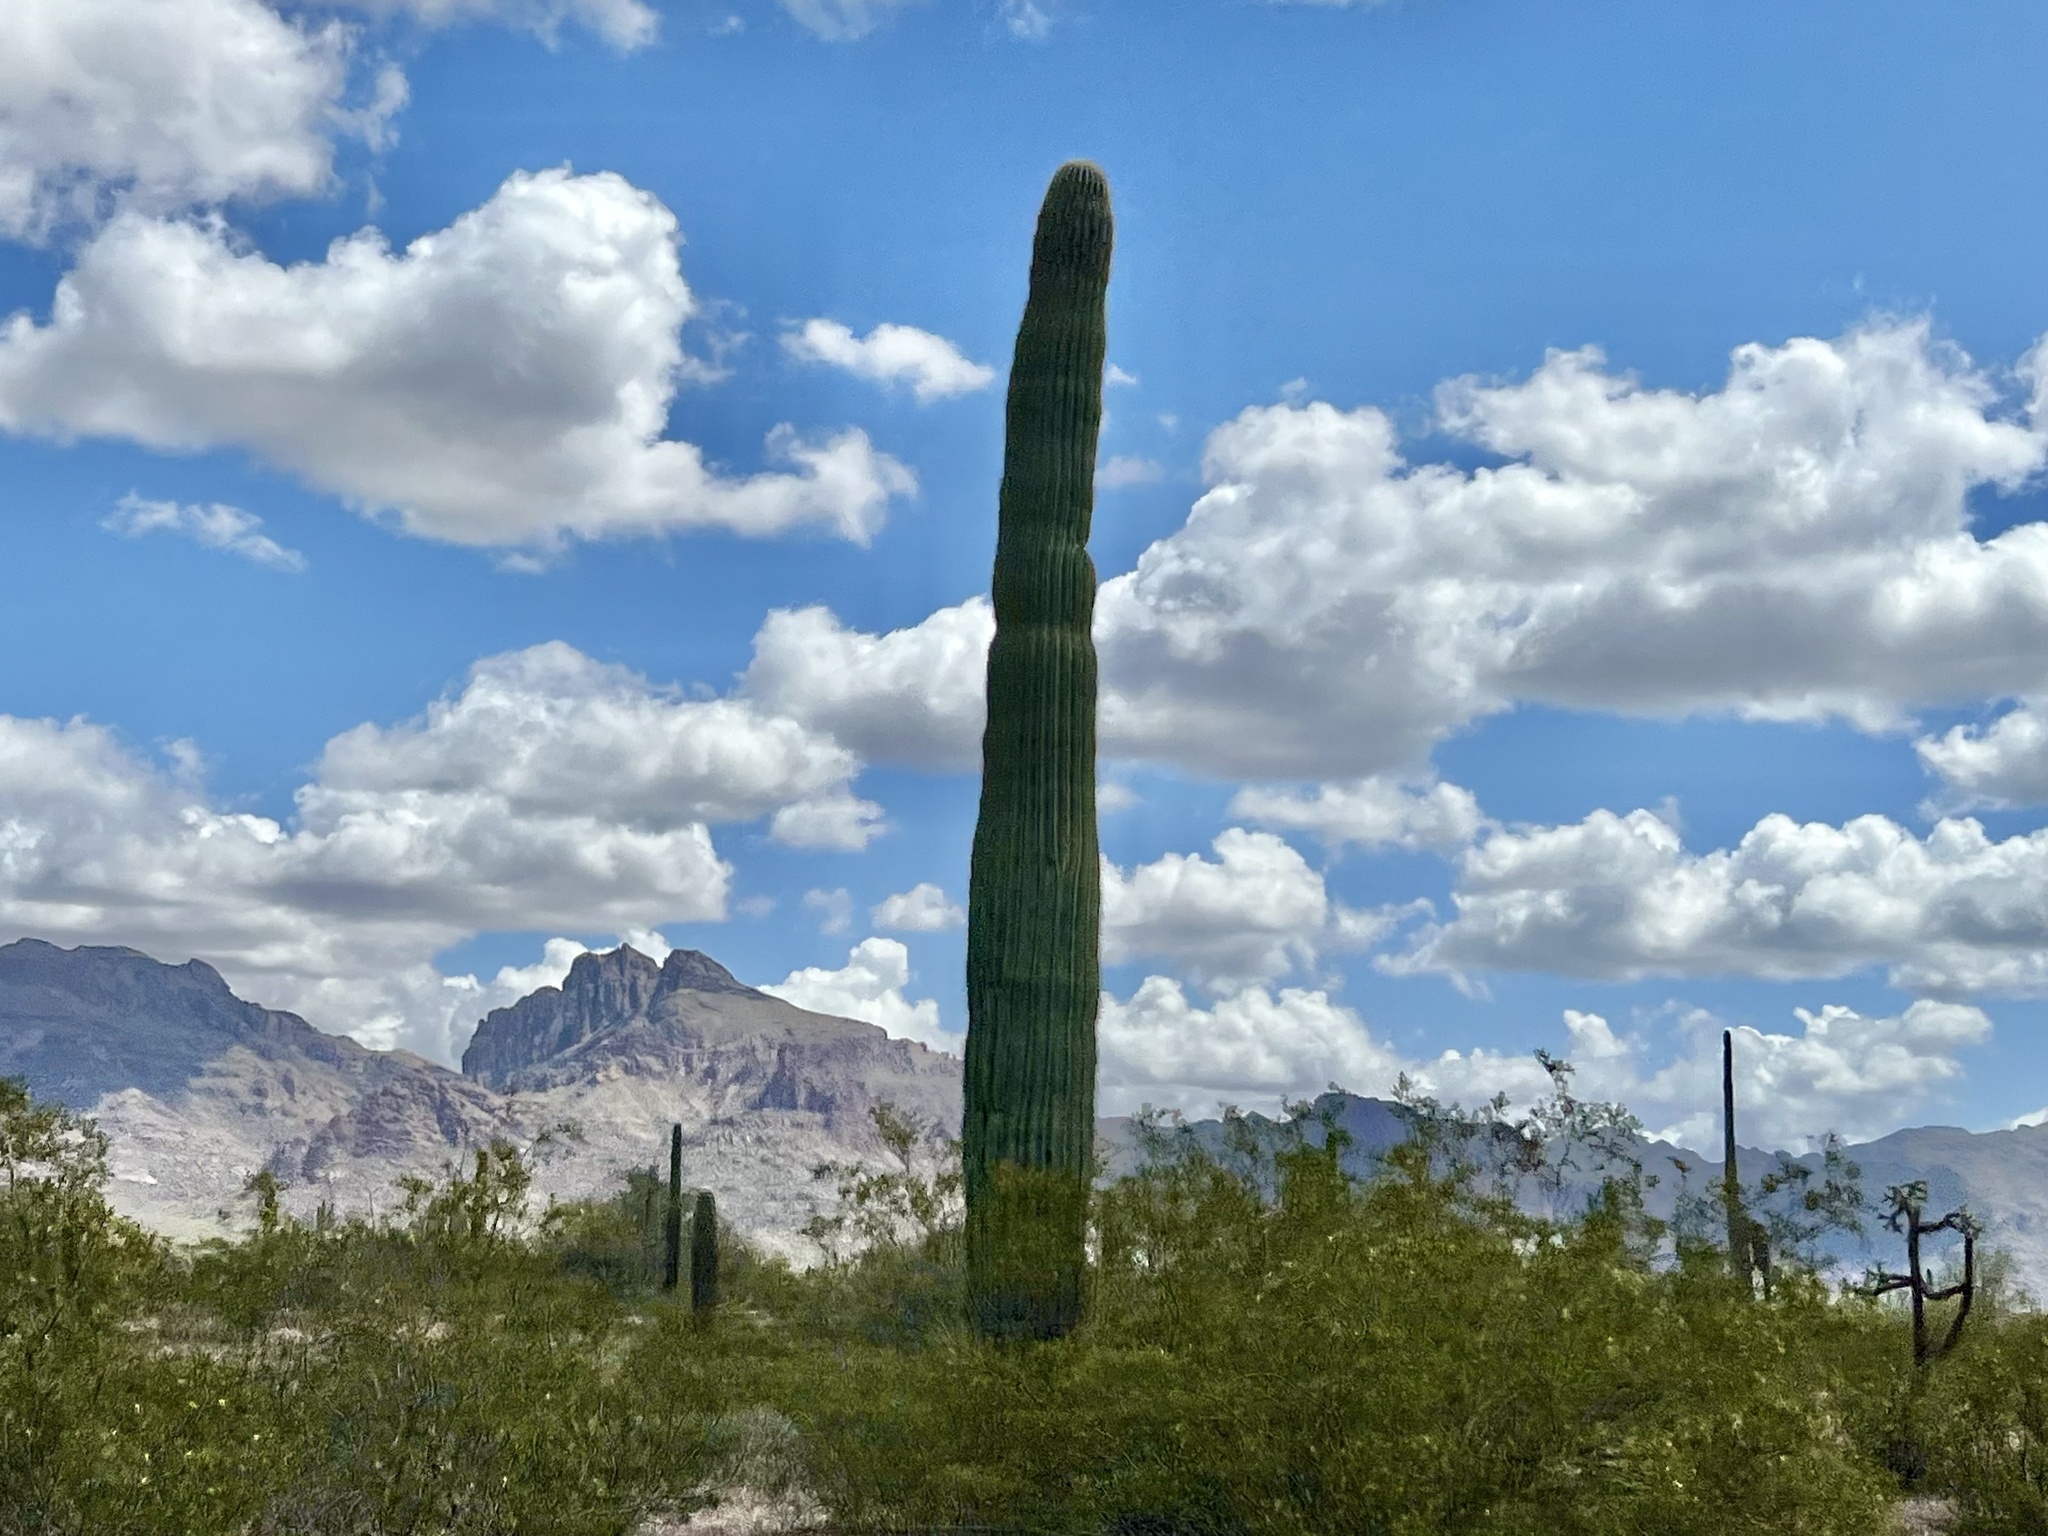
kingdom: Plantae
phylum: Tracheophyta
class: Magnoliopsida
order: Caryophyllales
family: Cactaceae
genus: Carnegiea
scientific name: Carnegiea gigantea
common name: Saguaro
